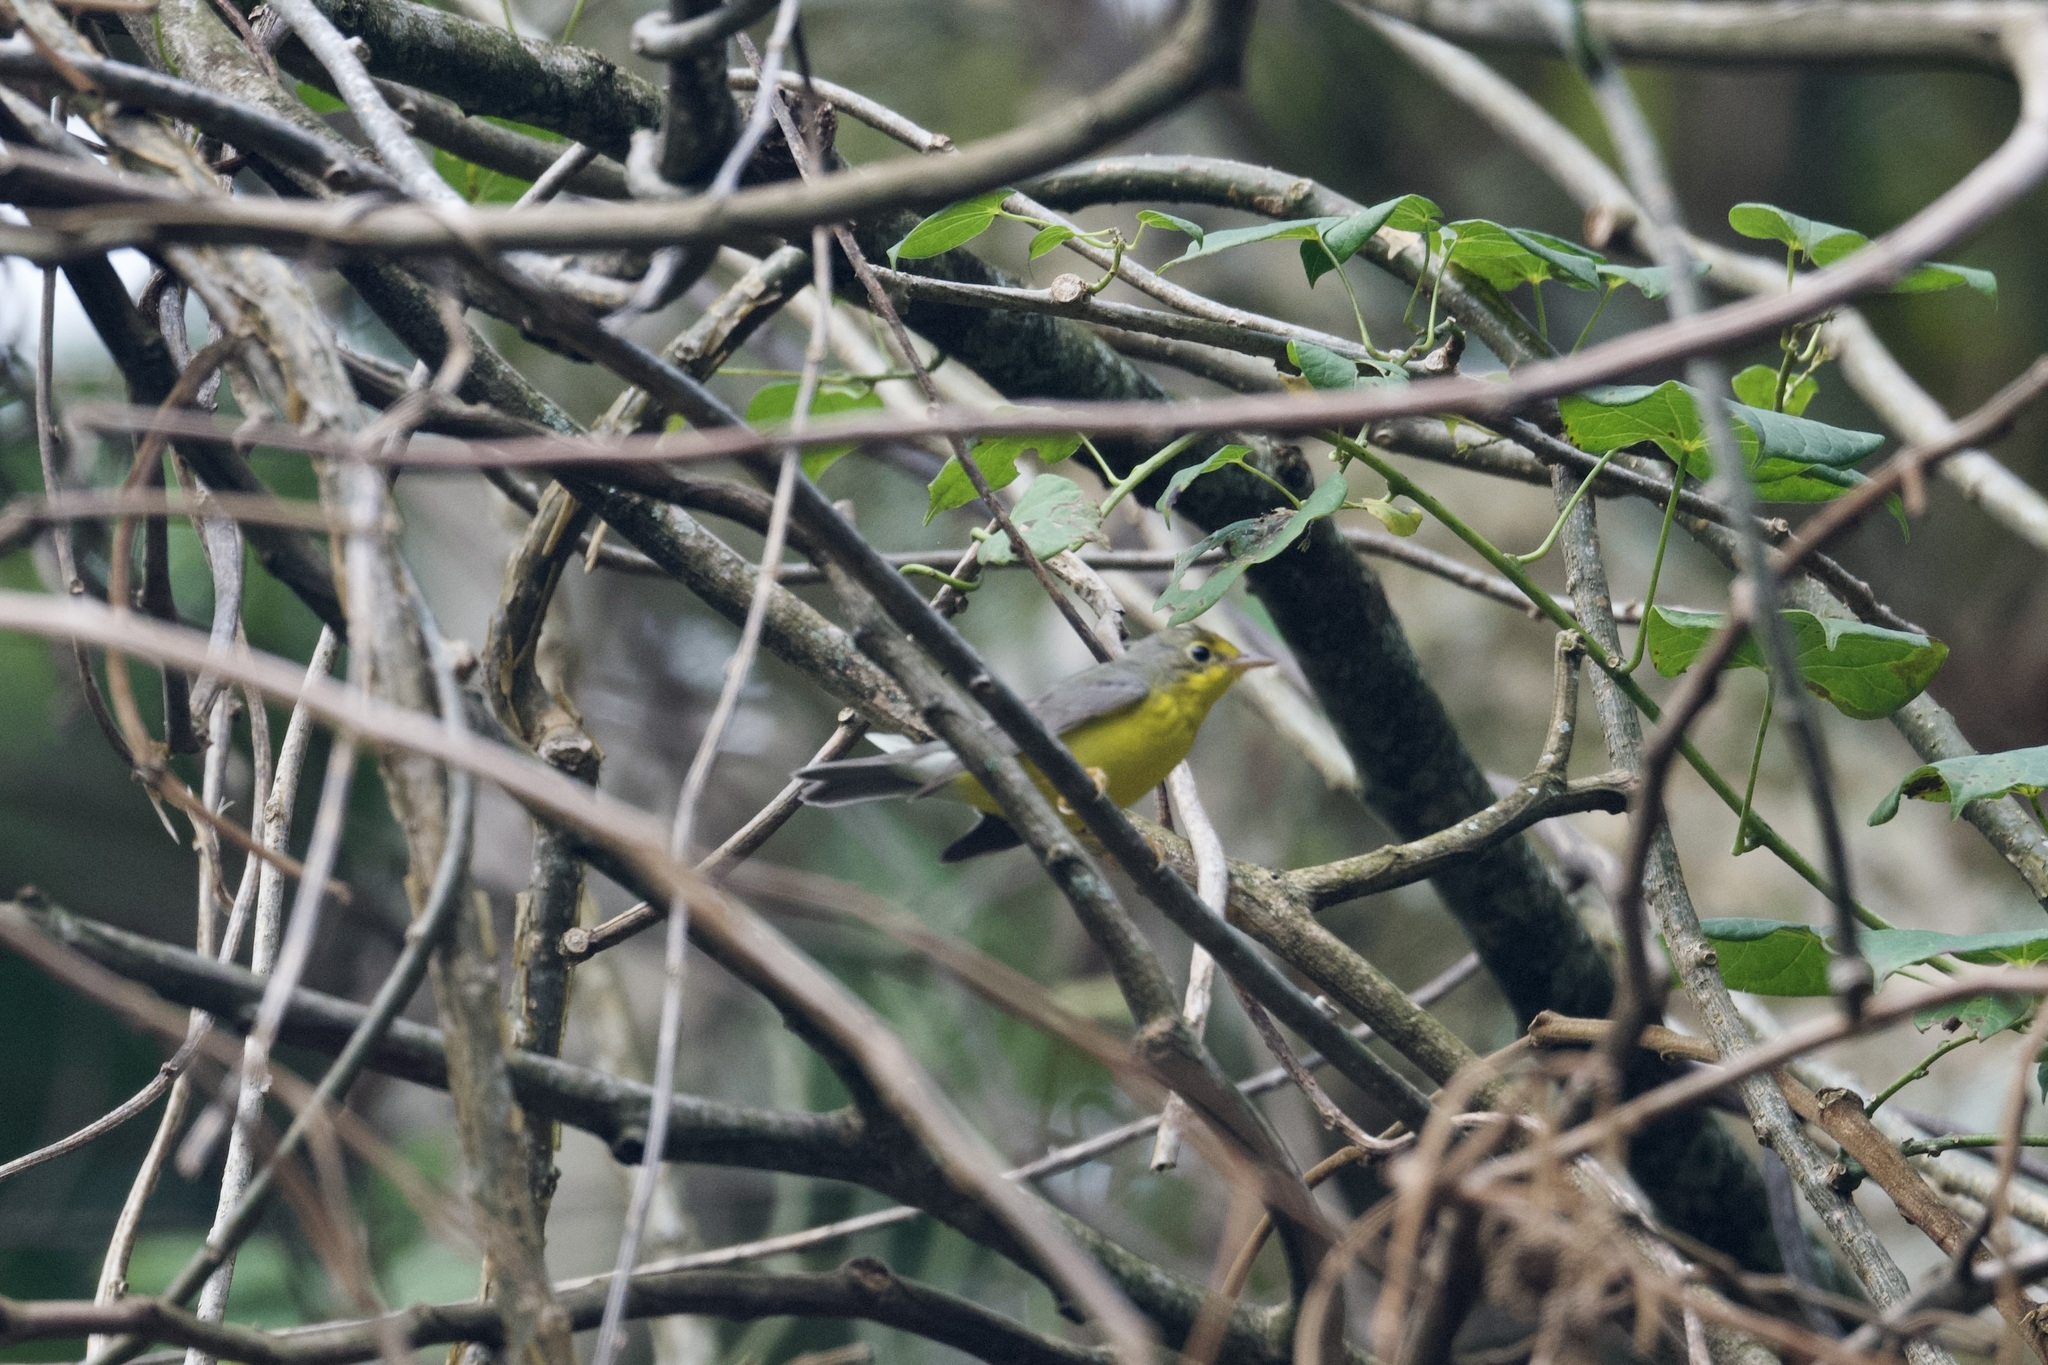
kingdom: Animalia
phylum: Chordata
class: Aves
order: Passeriformes
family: Parulidae
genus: Cardellina
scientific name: Cardellina canadensis
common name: Canada warbler
